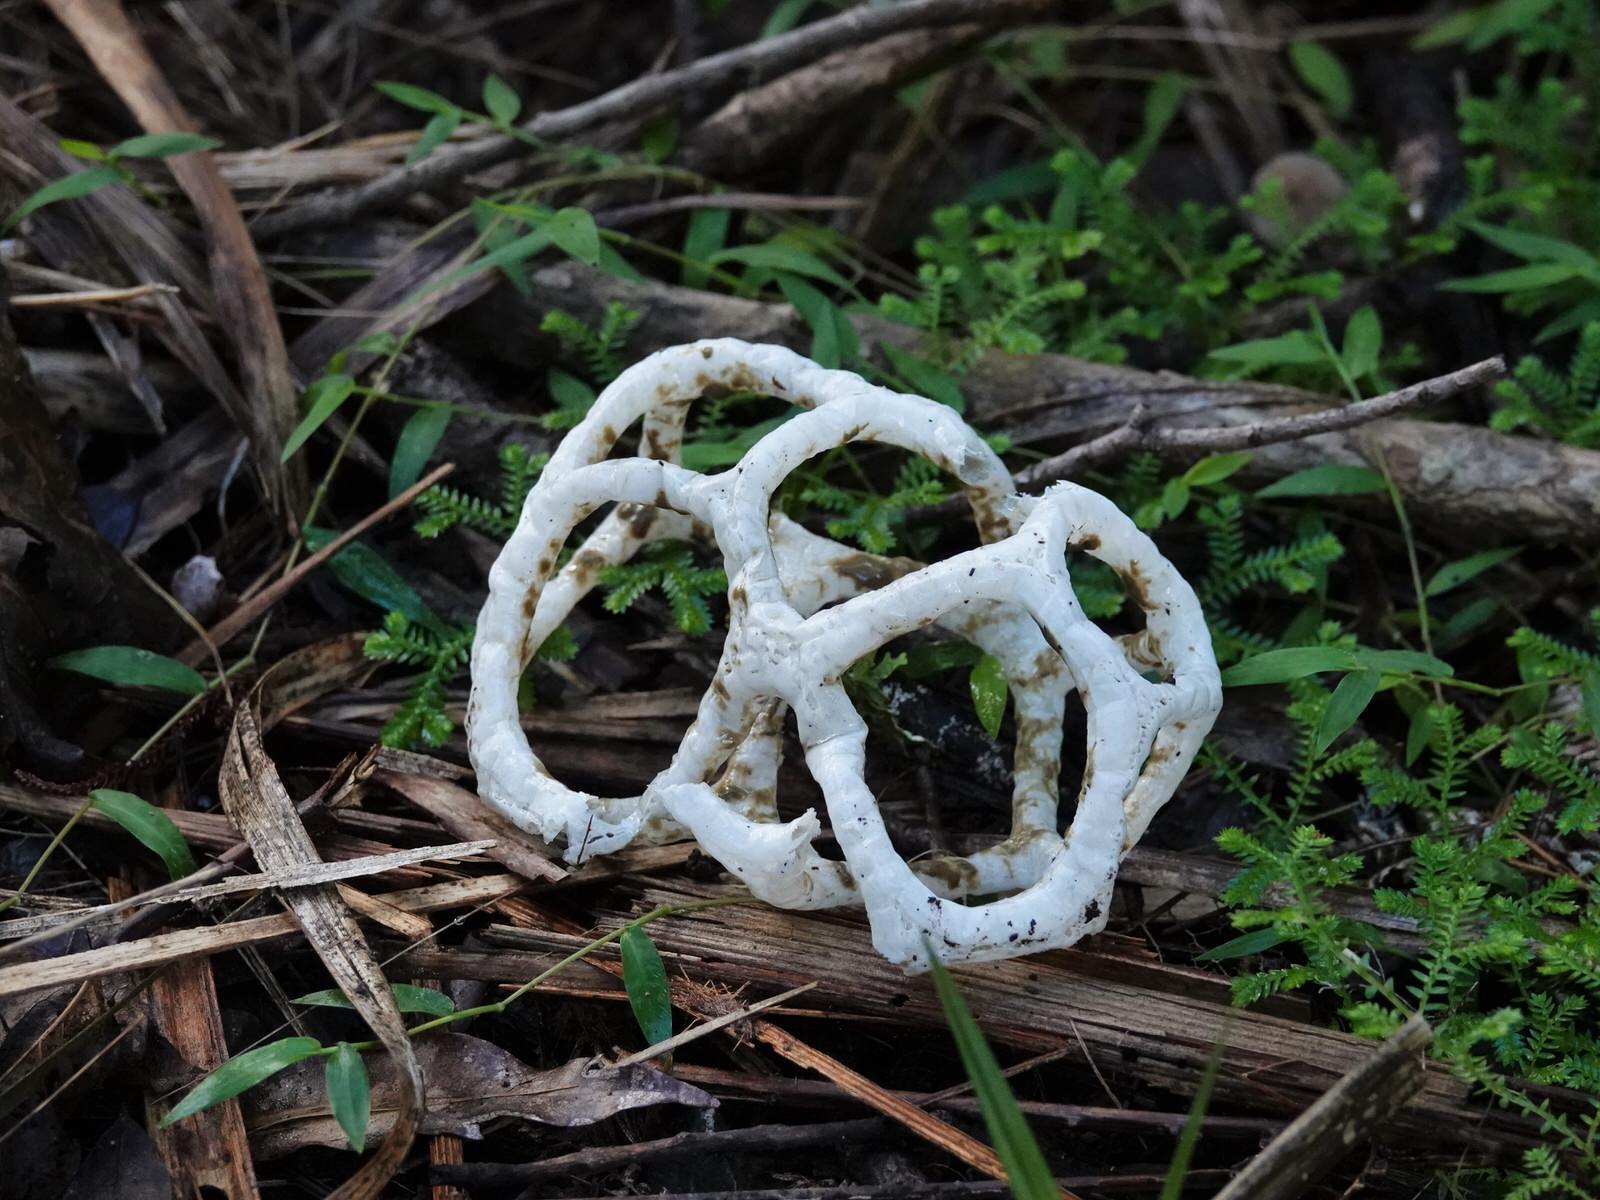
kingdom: Fungi
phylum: Basidiomycota
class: Agaricomycetes
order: Phallales
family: Phallaceae
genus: Ileodictyon
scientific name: Ileodictyon cibarium
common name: Basket fungus
